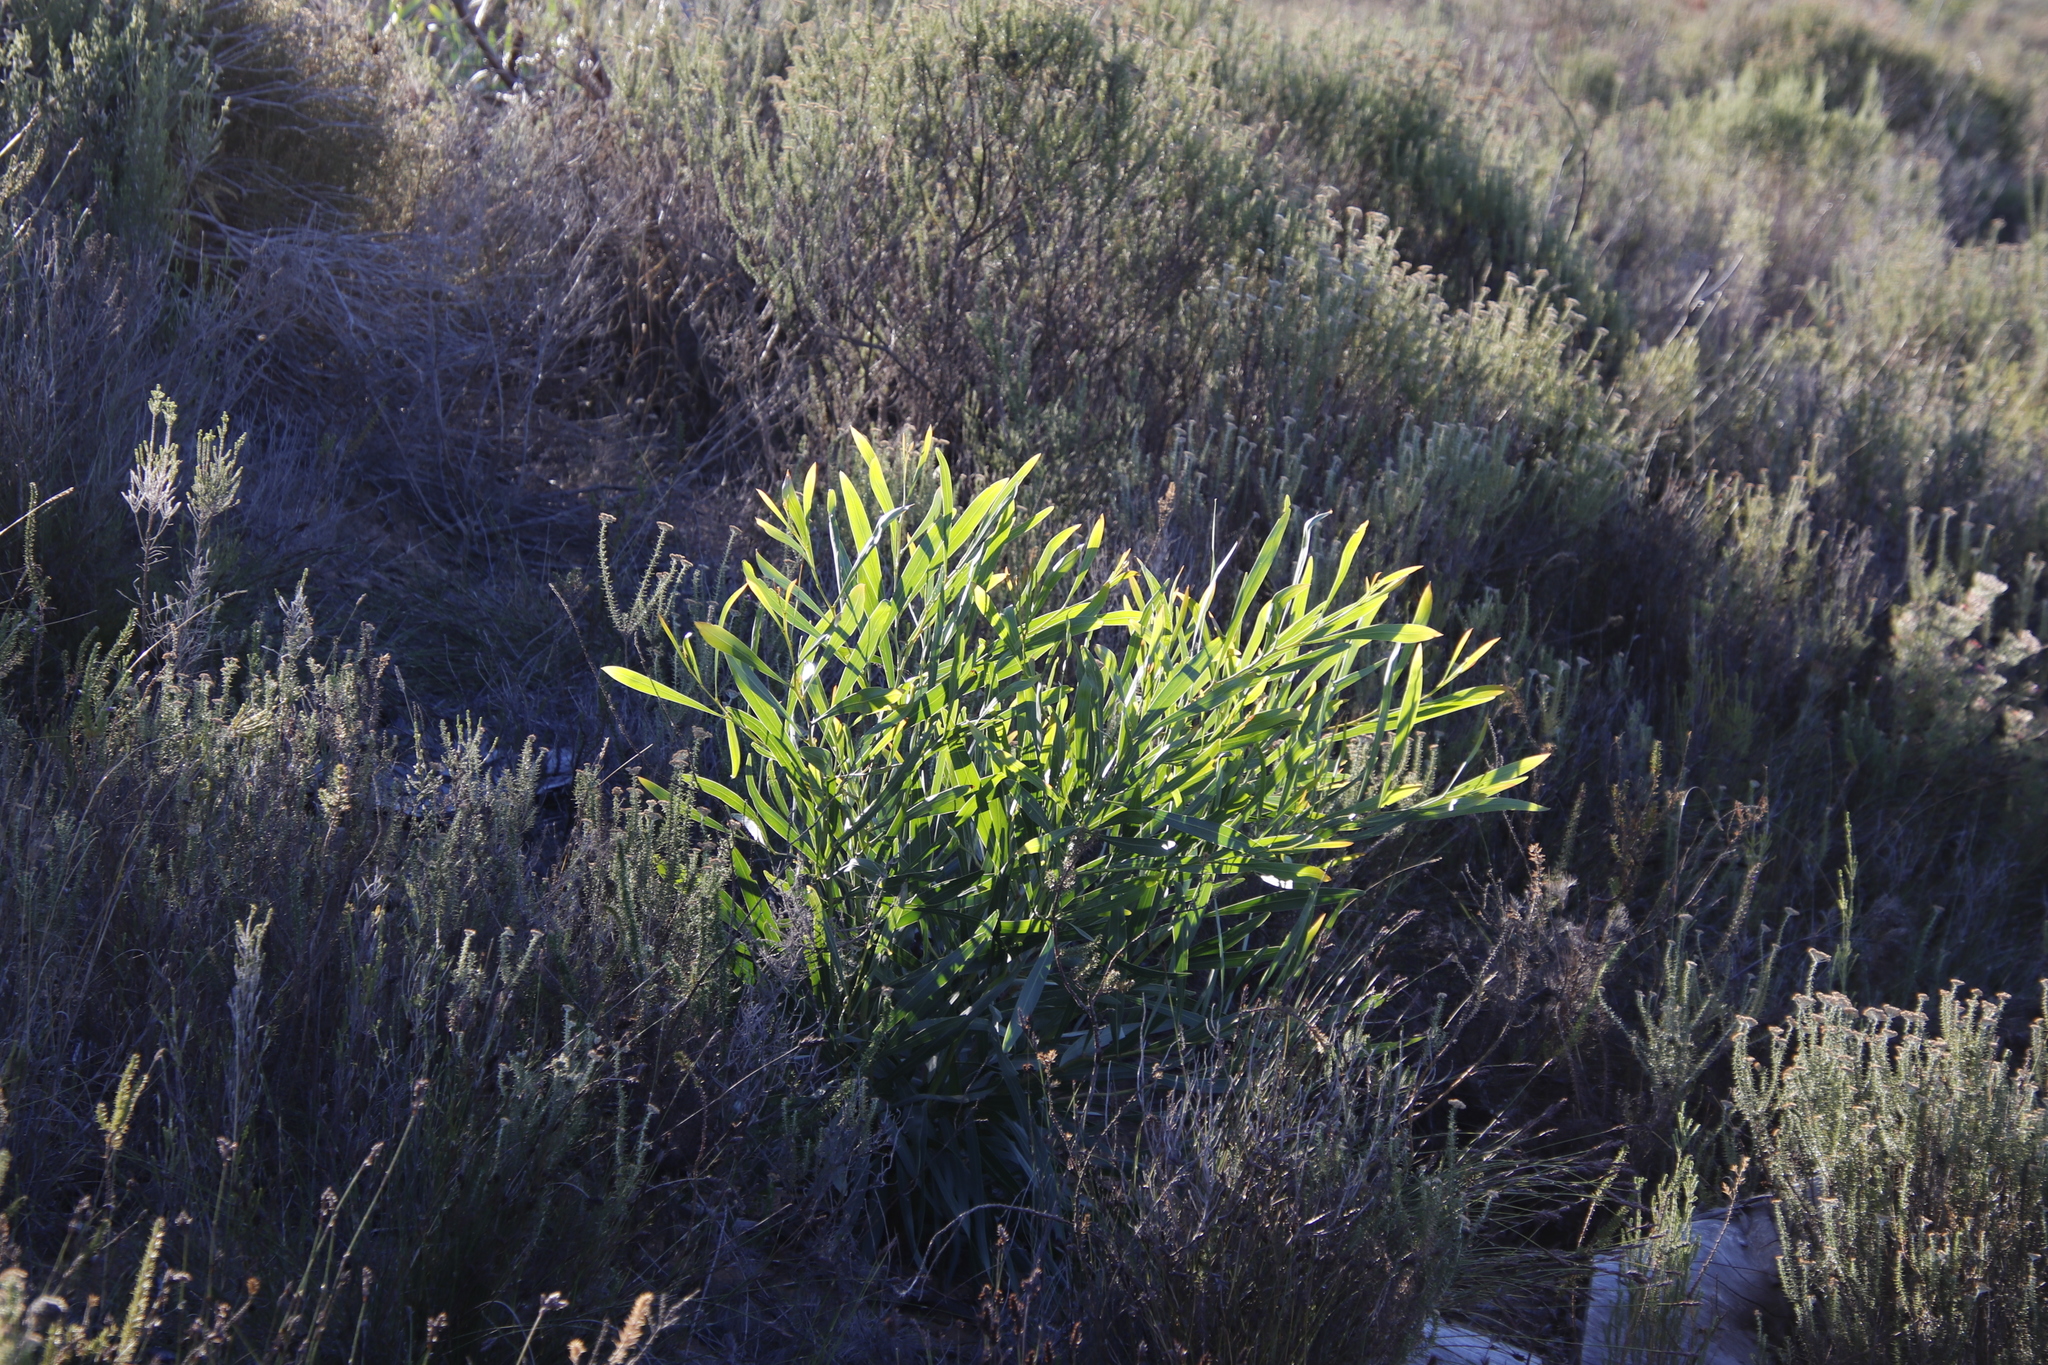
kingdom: Plantae
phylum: Tracheophyta
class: Magnoliopsida
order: Fabales
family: Fabaceae
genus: Acacia
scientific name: Acacia saligna
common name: Orange wattle
